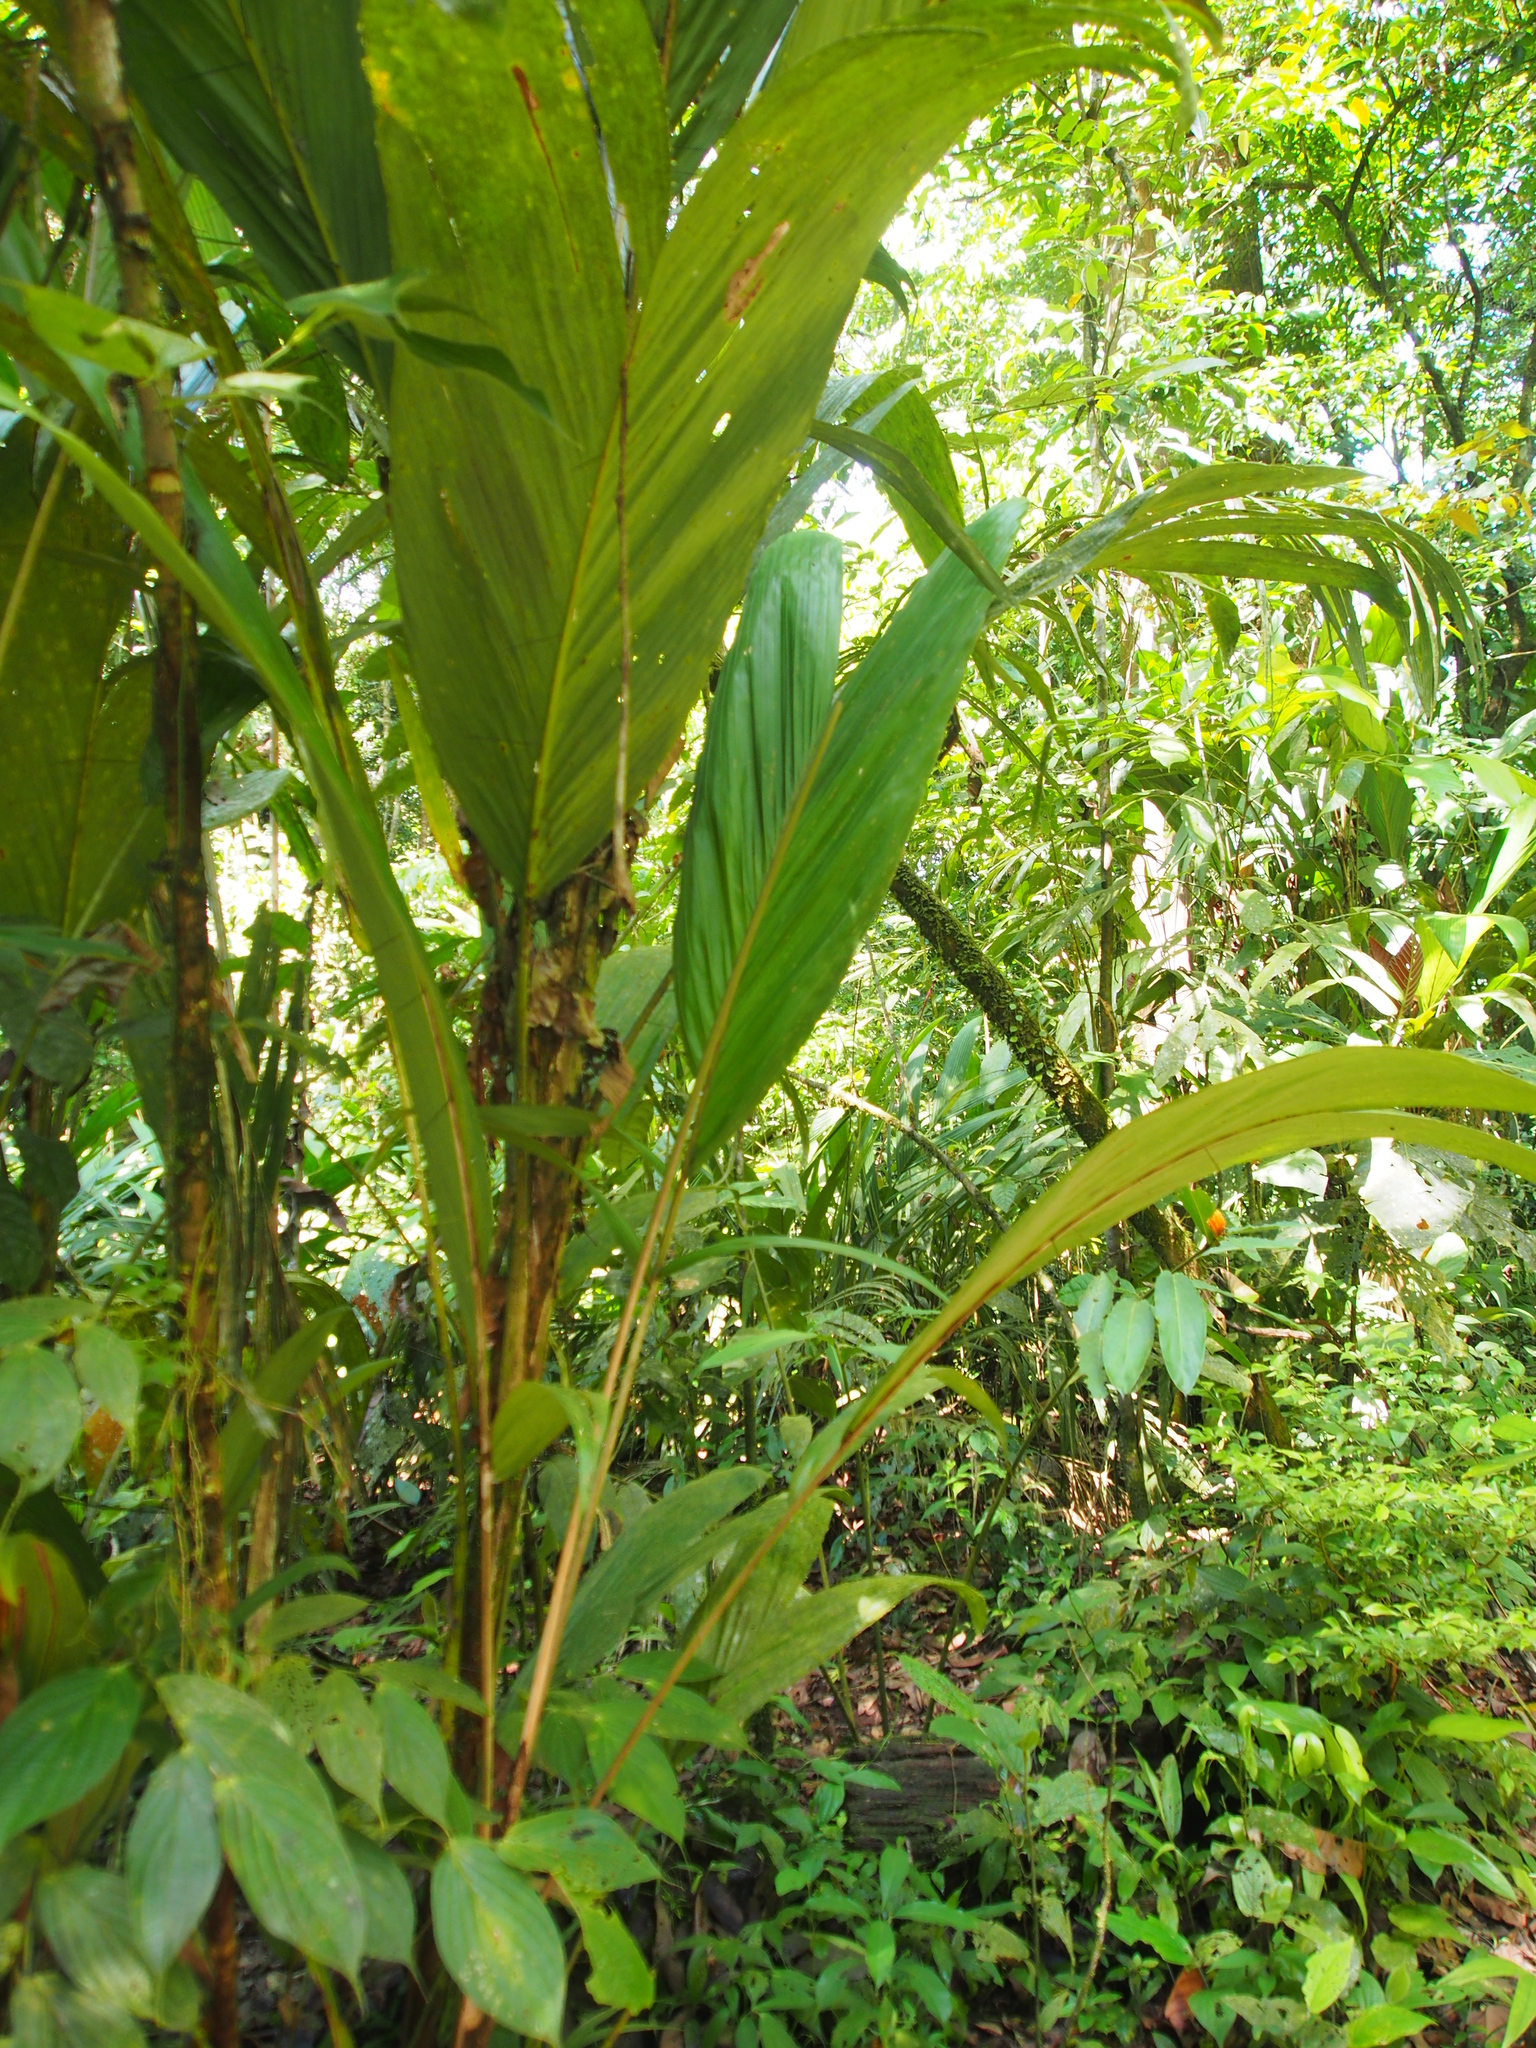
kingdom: Plantae
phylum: Tracheophyta
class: Liliopsida
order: Arecales
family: Arecaceae
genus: Bactris
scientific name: Bactris militaris
